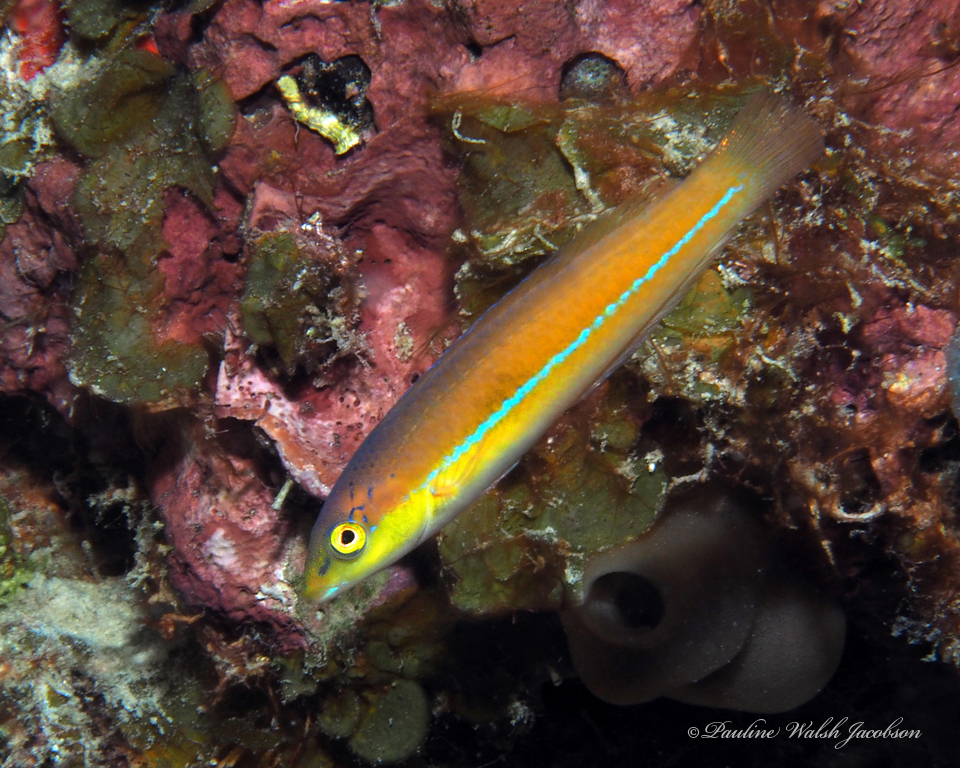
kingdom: Animalia
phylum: Chordata
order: Perciformes
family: Labridae
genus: Halichoeres
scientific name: Halichoeres garnoti
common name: Yellowhead wrasse
